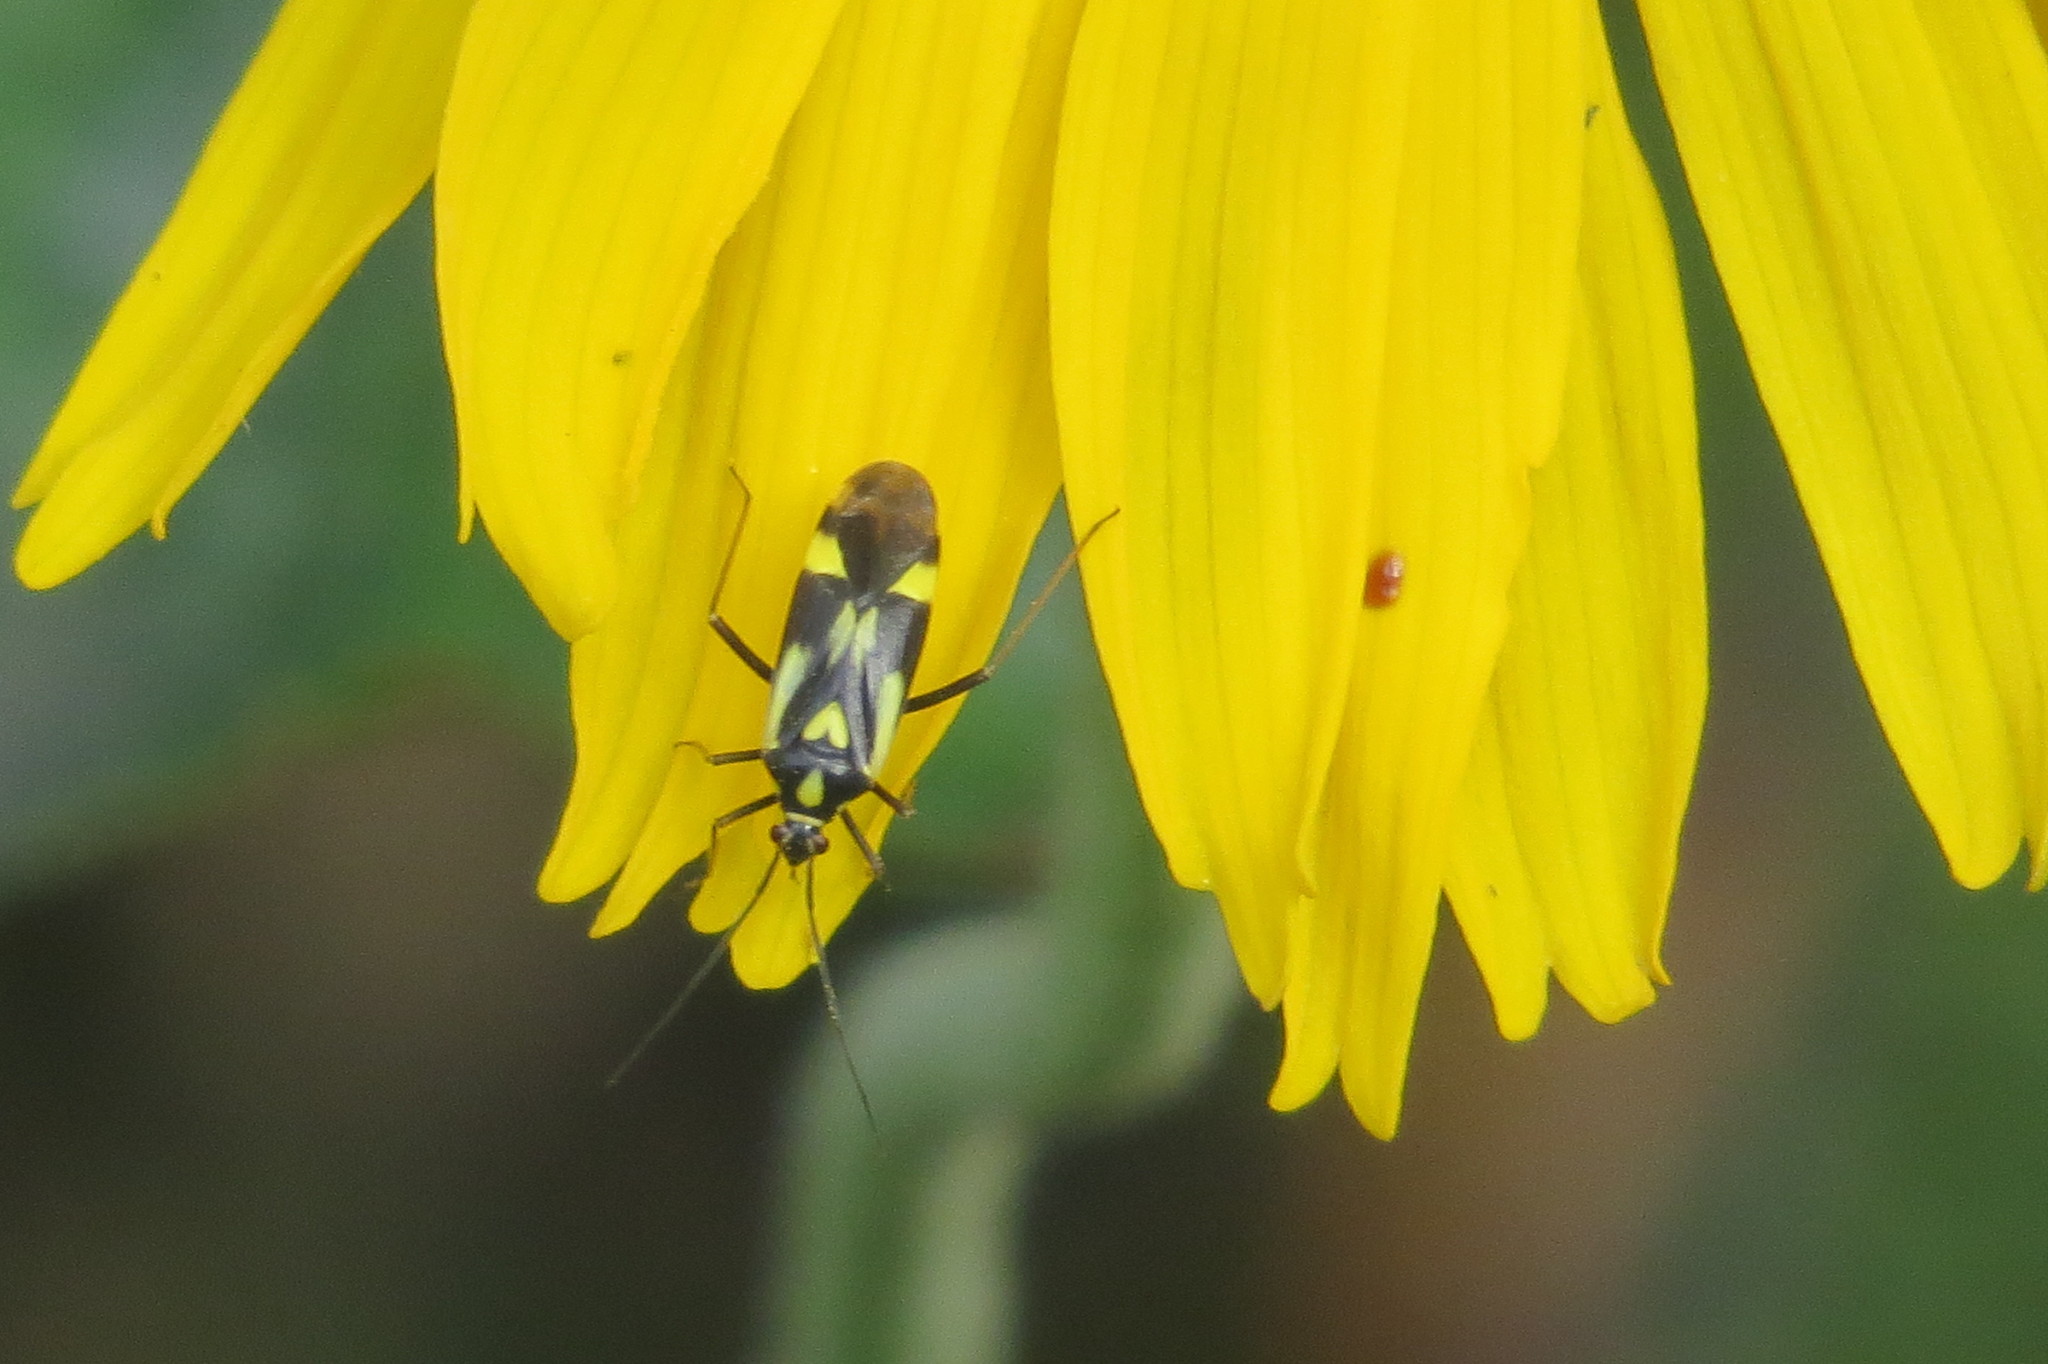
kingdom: Animalia
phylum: Arthropoda
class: Insecta
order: Hemiptera
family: Miridae
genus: Grypocoris
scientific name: Grypocoris sexguttatus
